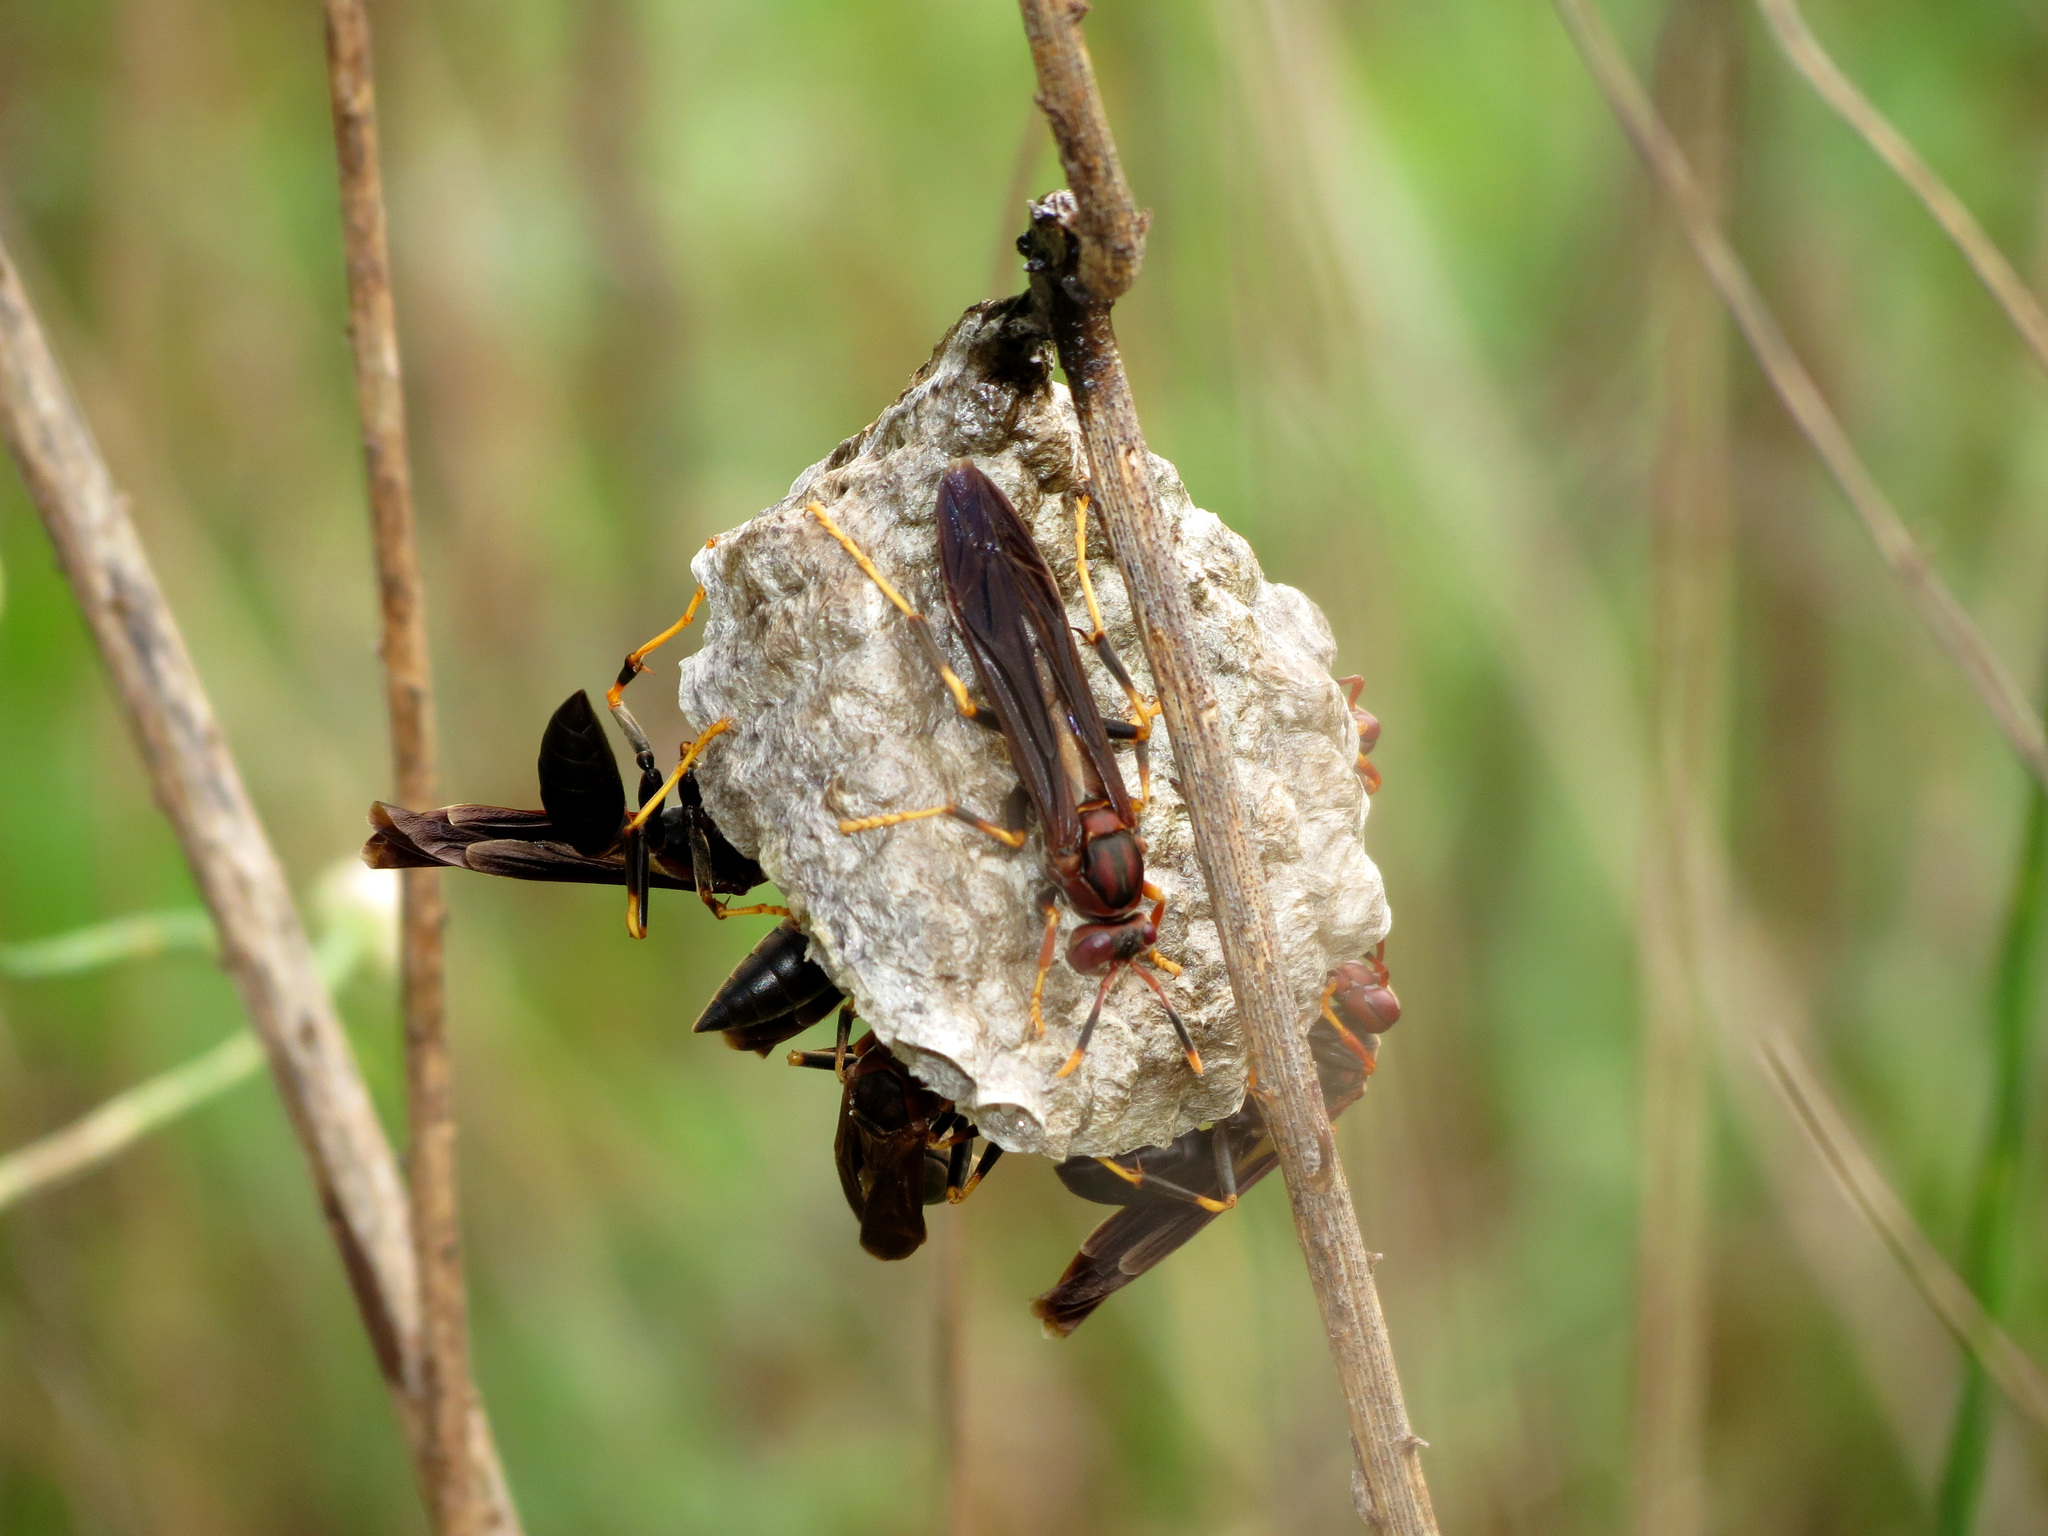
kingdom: Animalia
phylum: Arthropoda
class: Insecta
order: Hymenoptera
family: Eumenidae
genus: Polistes
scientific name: Polistes annularis
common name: Ringed paper wasp
